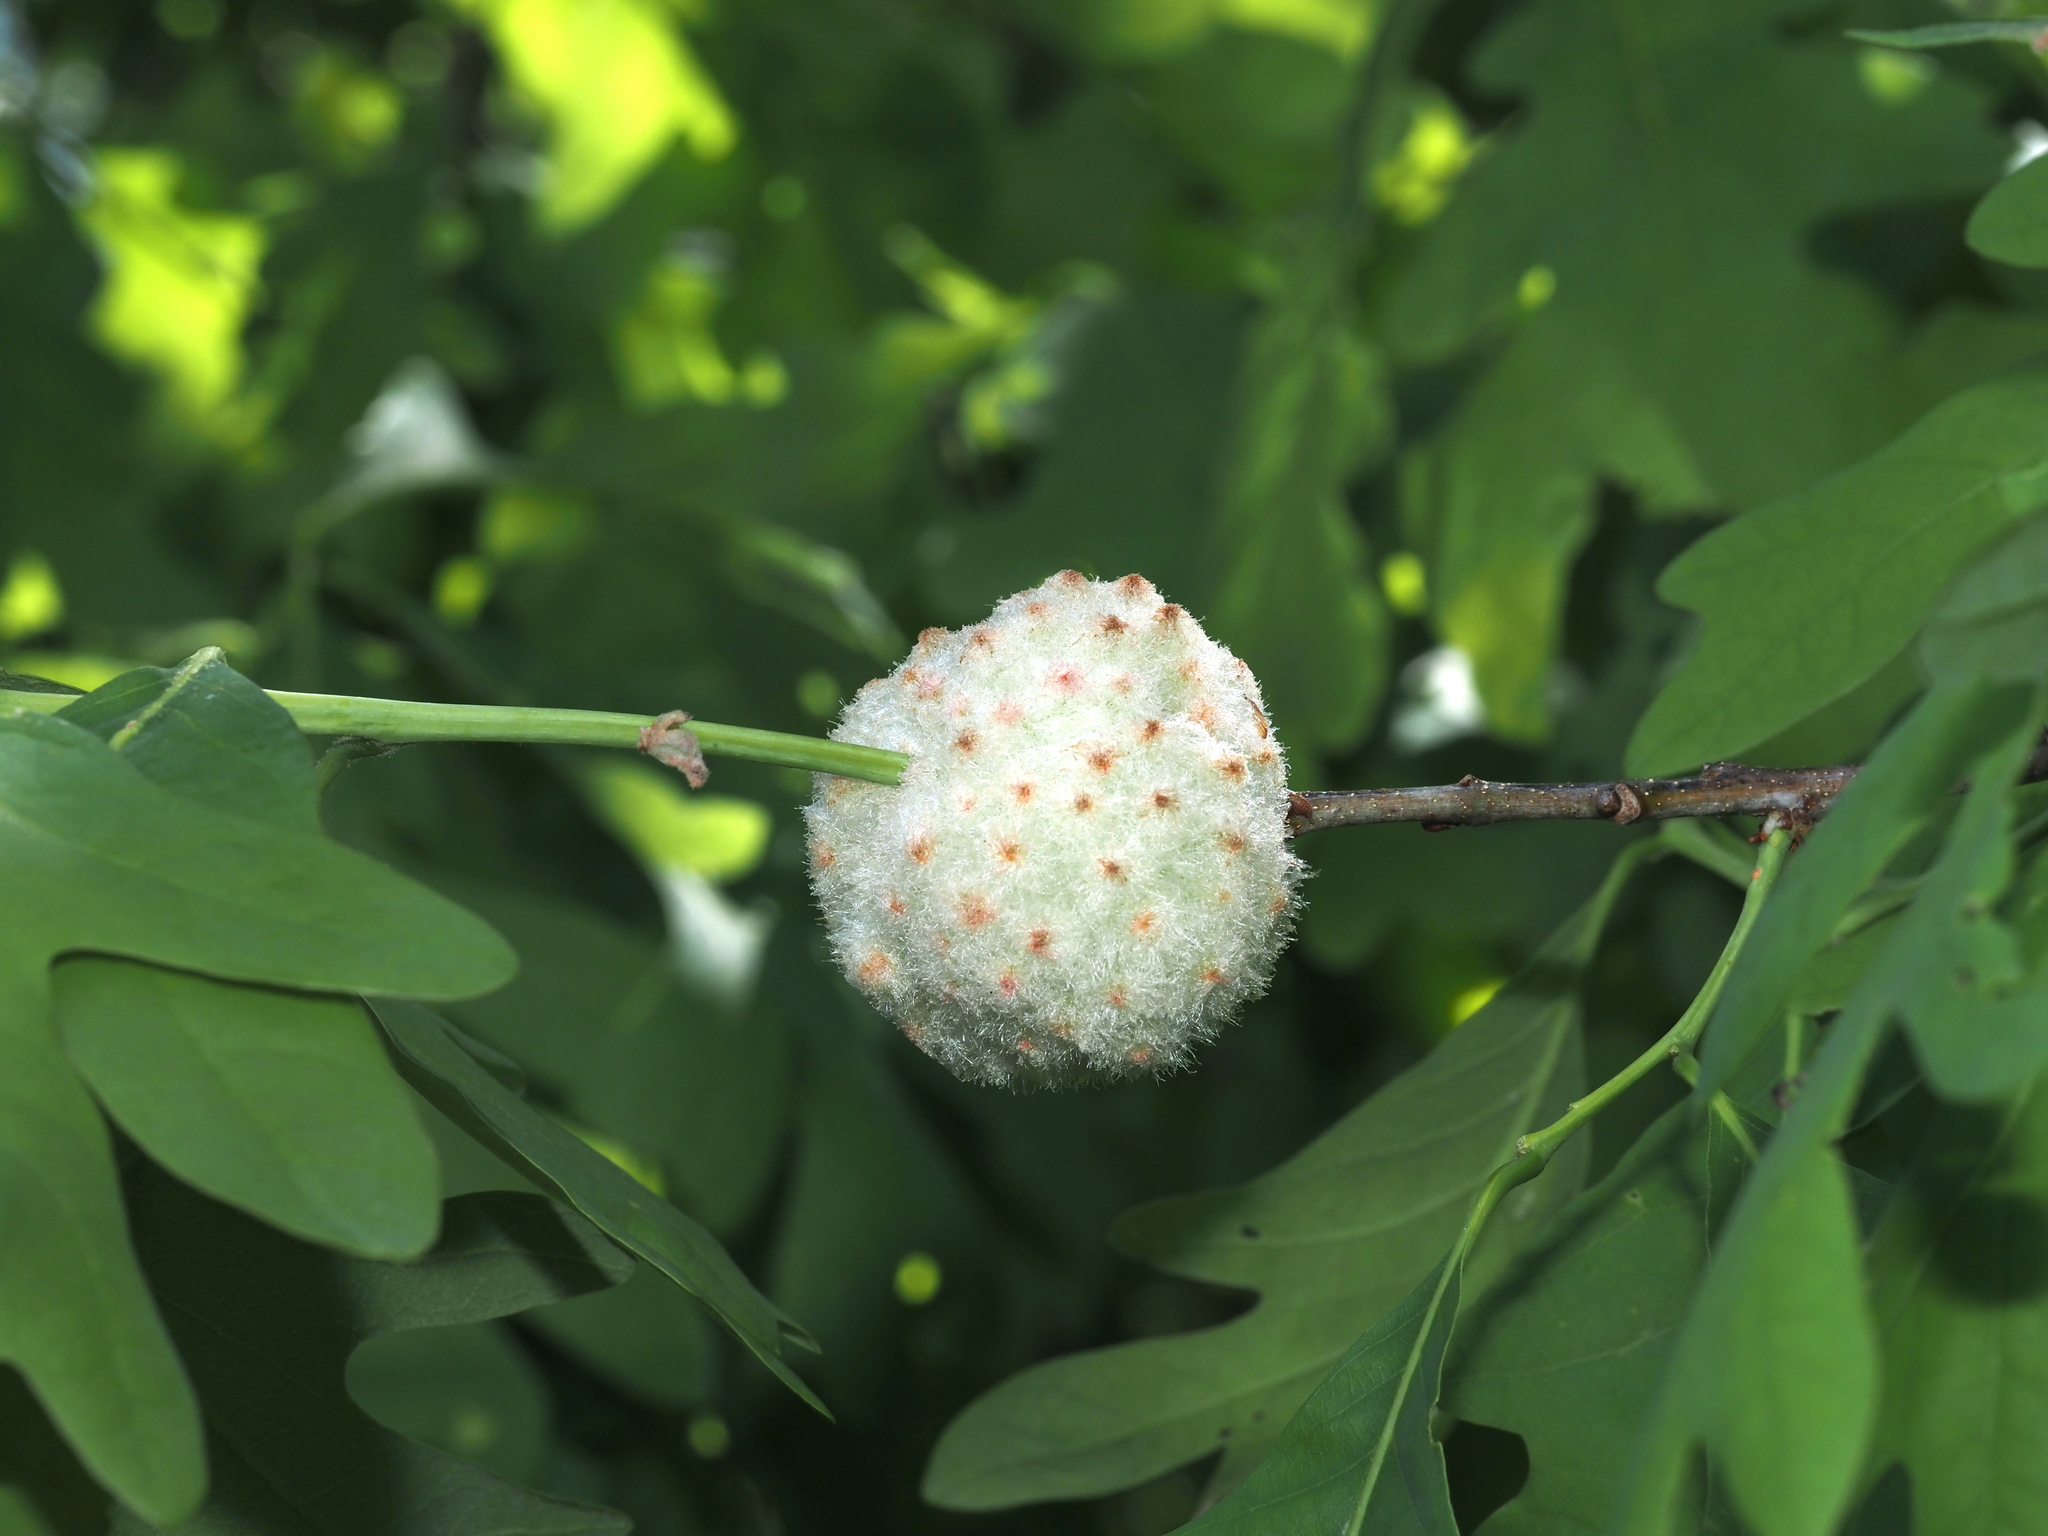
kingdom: Animalia
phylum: Arthropoda
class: Insecta
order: Hymenoptera
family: Cynipidae
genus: Callirhytis
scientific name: Callirhytis
